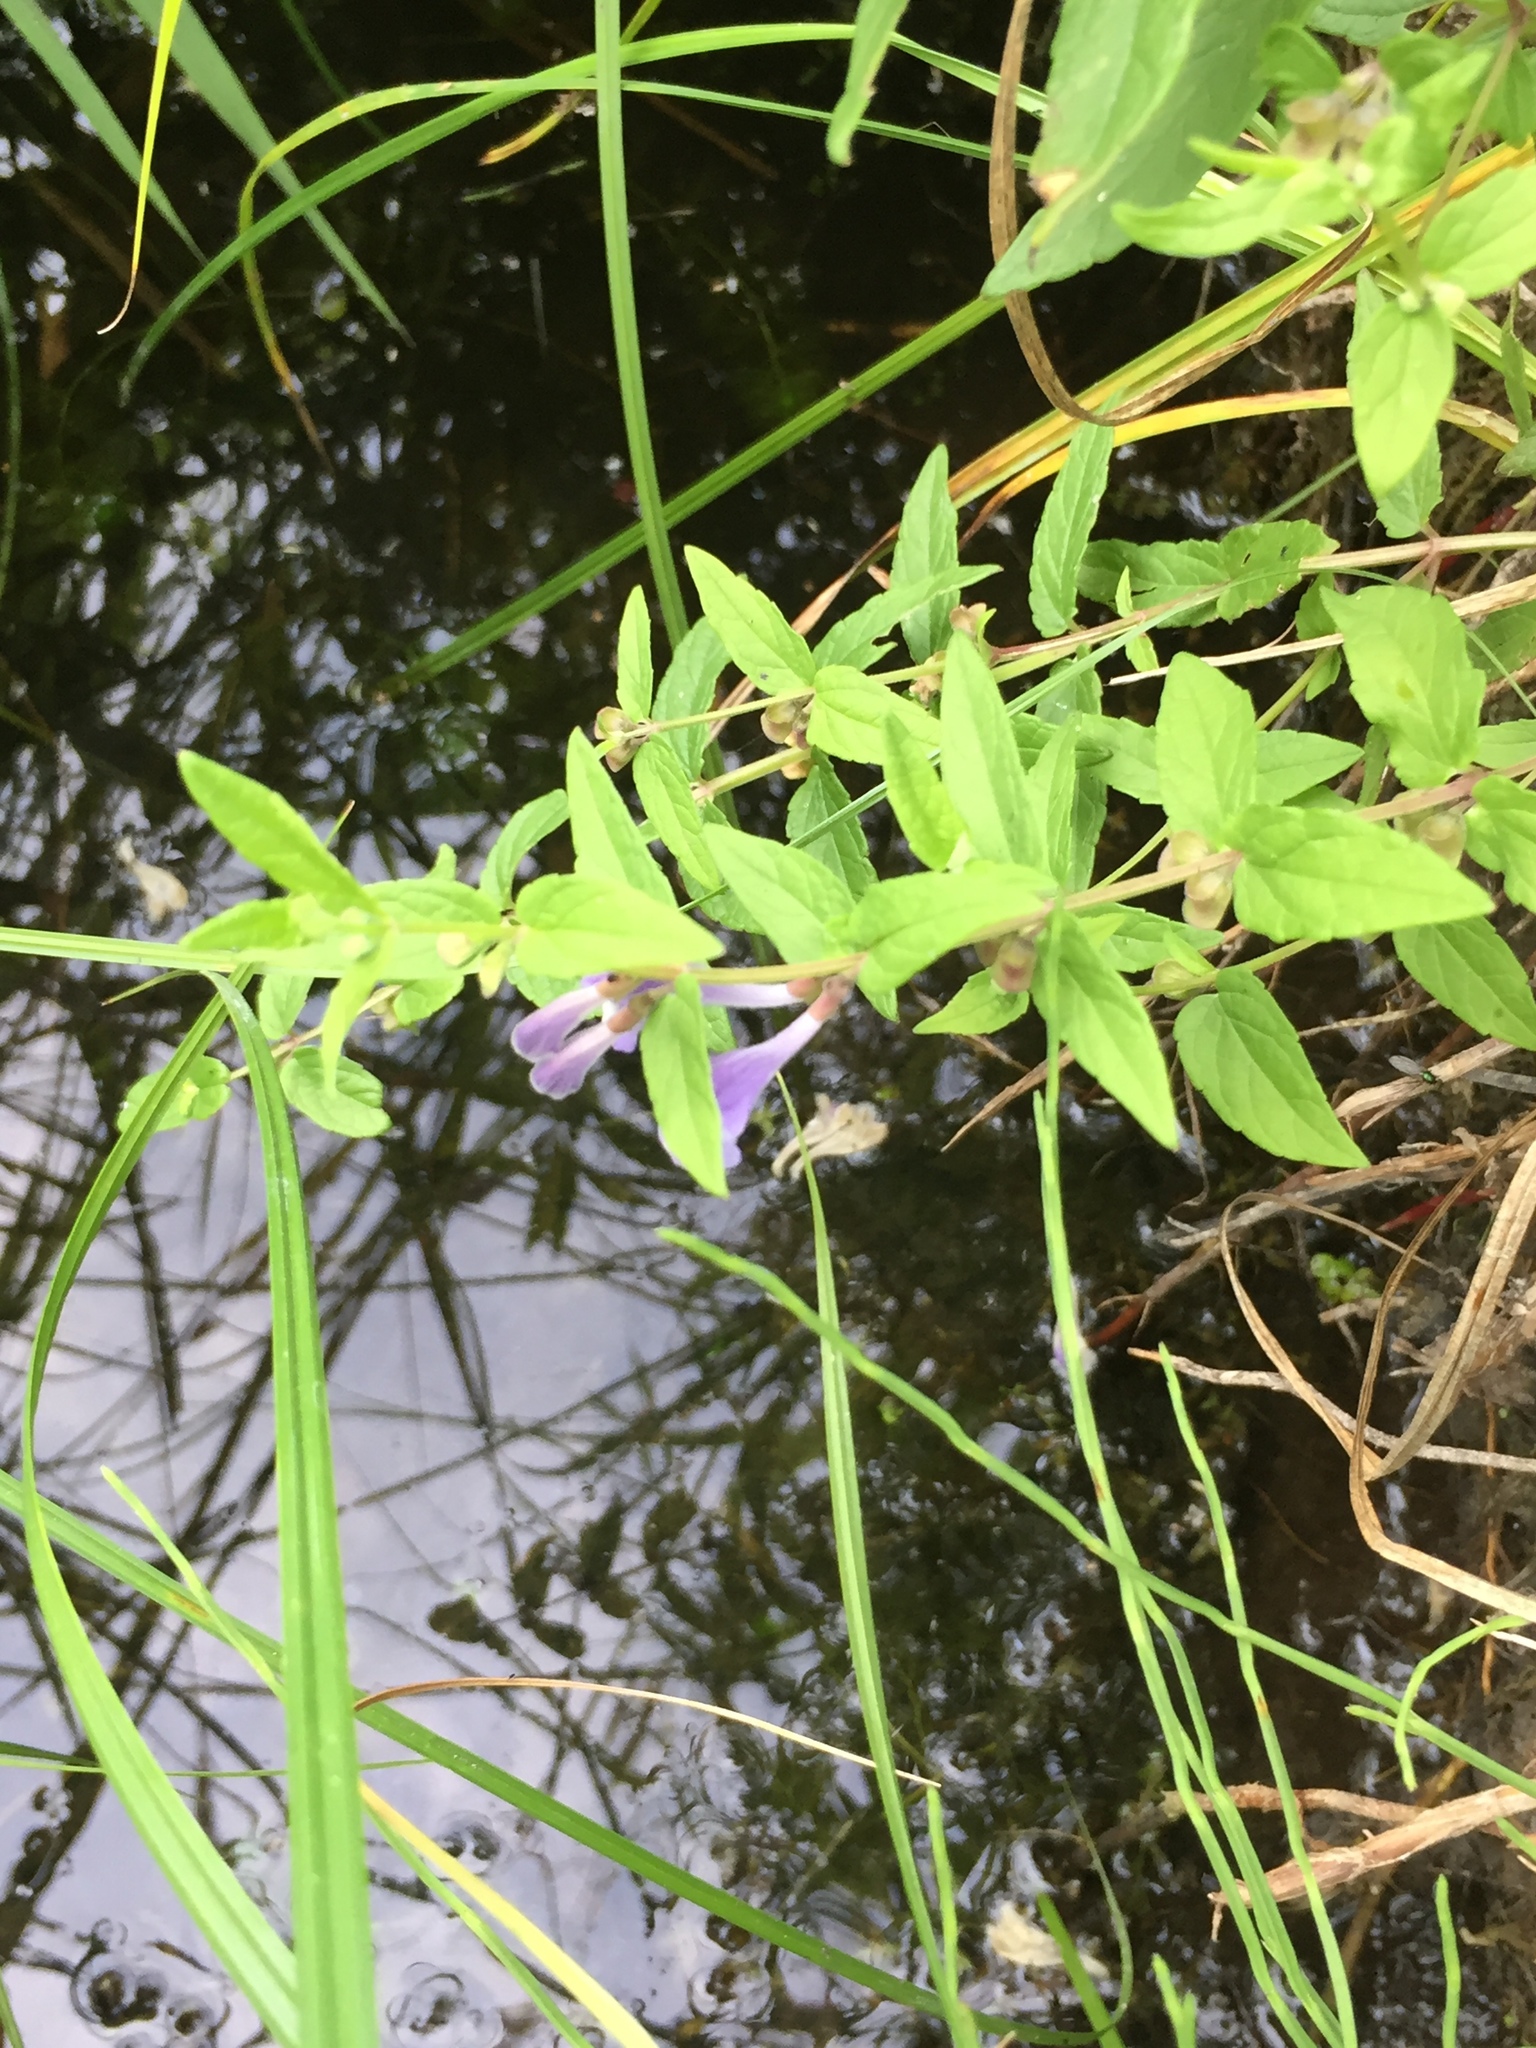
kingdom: Plantae
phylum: Tracheophyta
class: Magnoliopsida
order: Lamiales
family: Lamiaceae
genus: Scutellaria
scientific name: Scutellaria galericulata
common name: Skullcap
